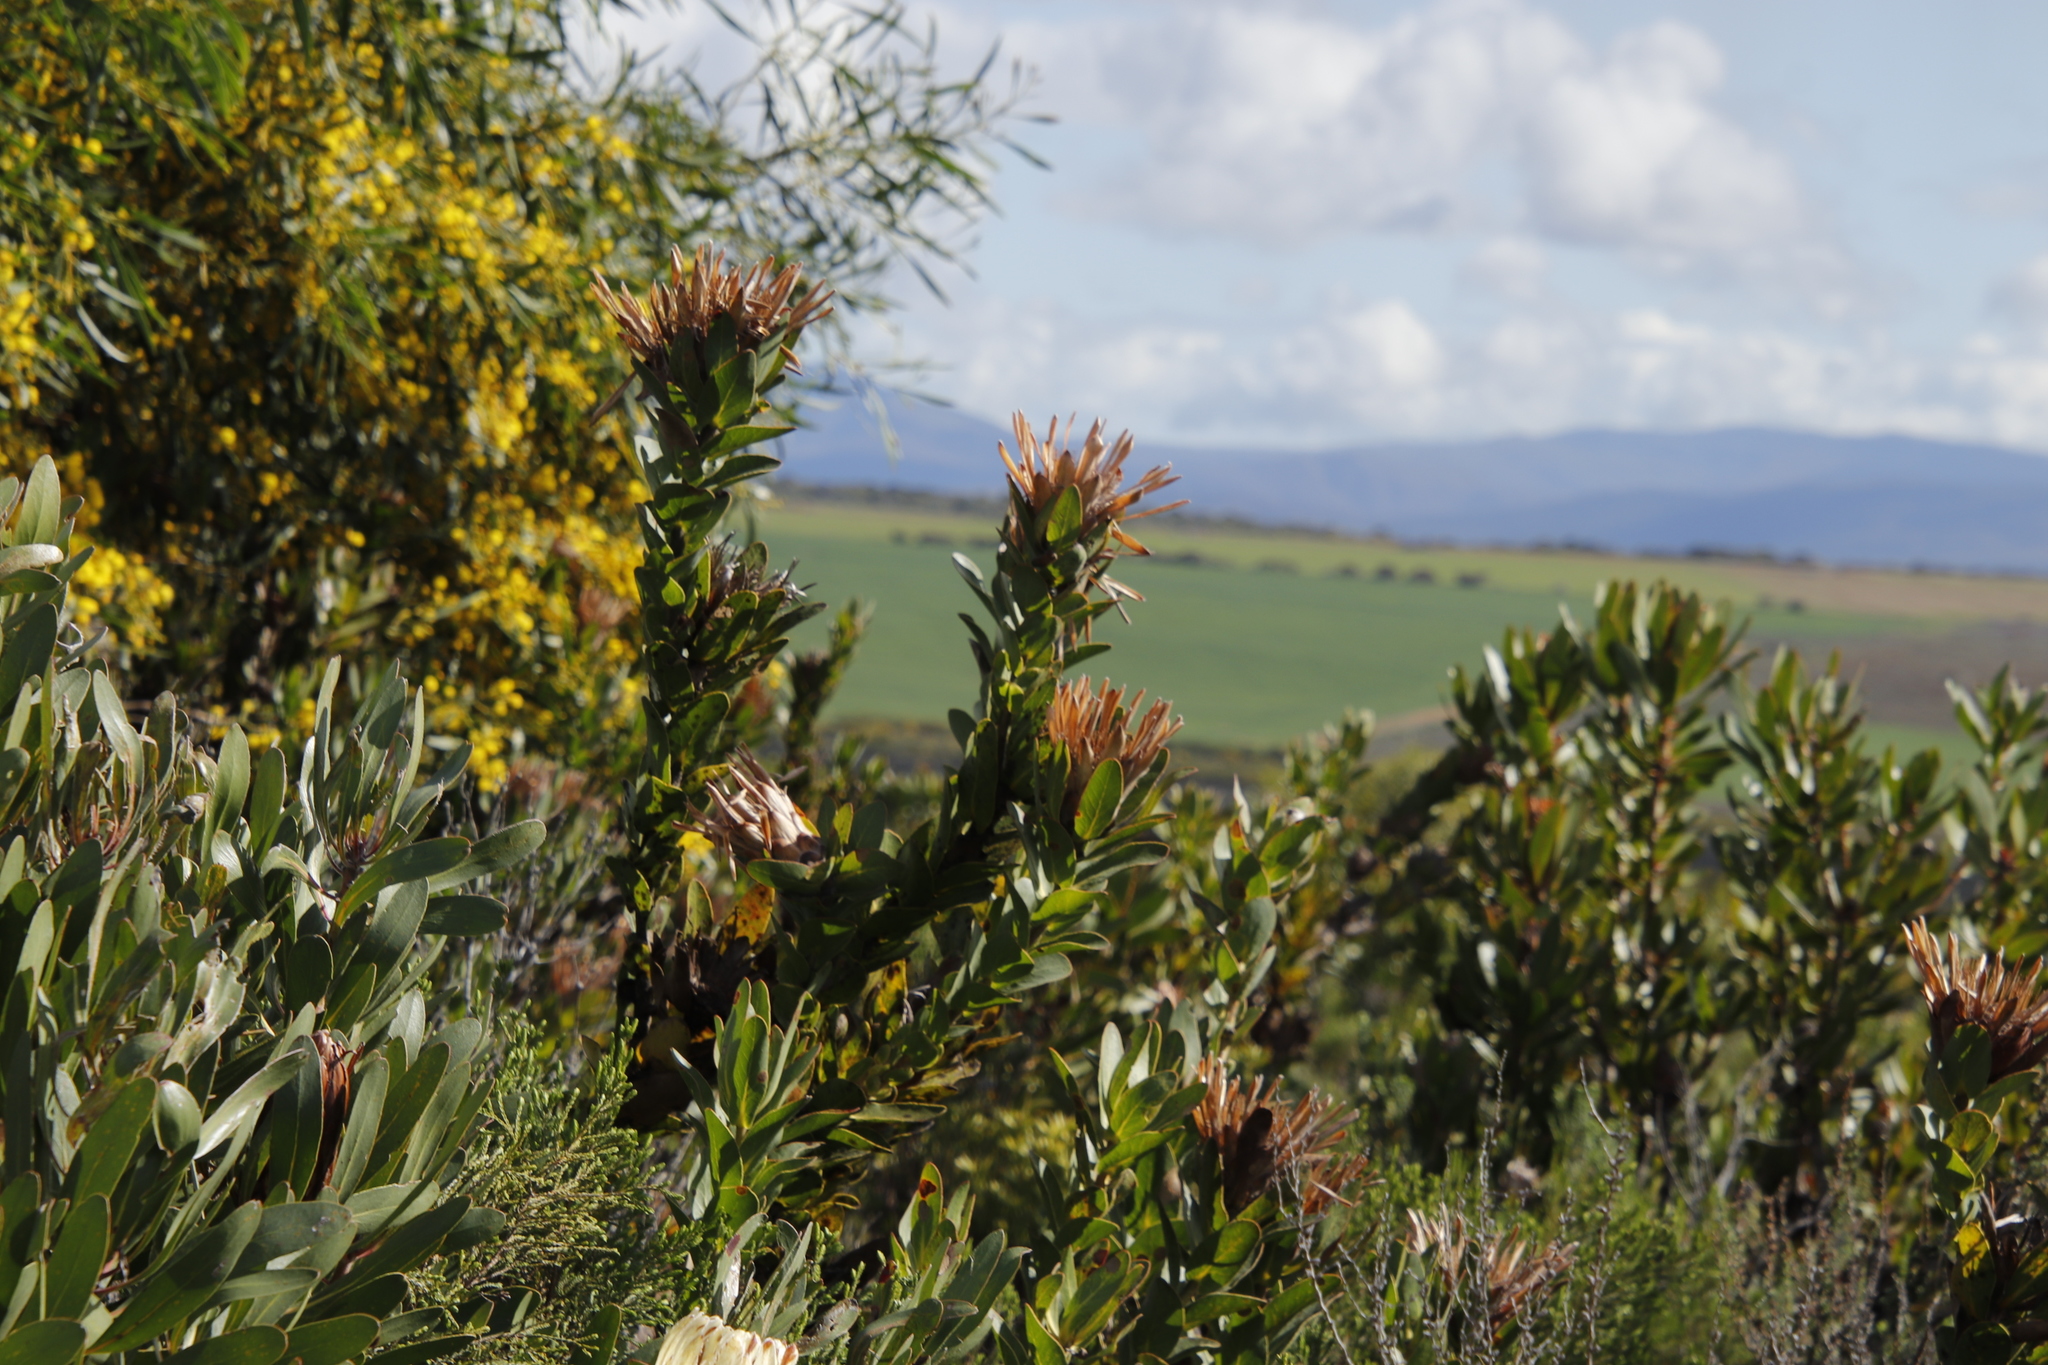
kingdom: Plantae
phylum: Tracheophyta
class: Magnoliopsida
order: Proteales
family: Proteaceae
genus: Protea
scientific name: Protea compacta
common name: Bot river protea
